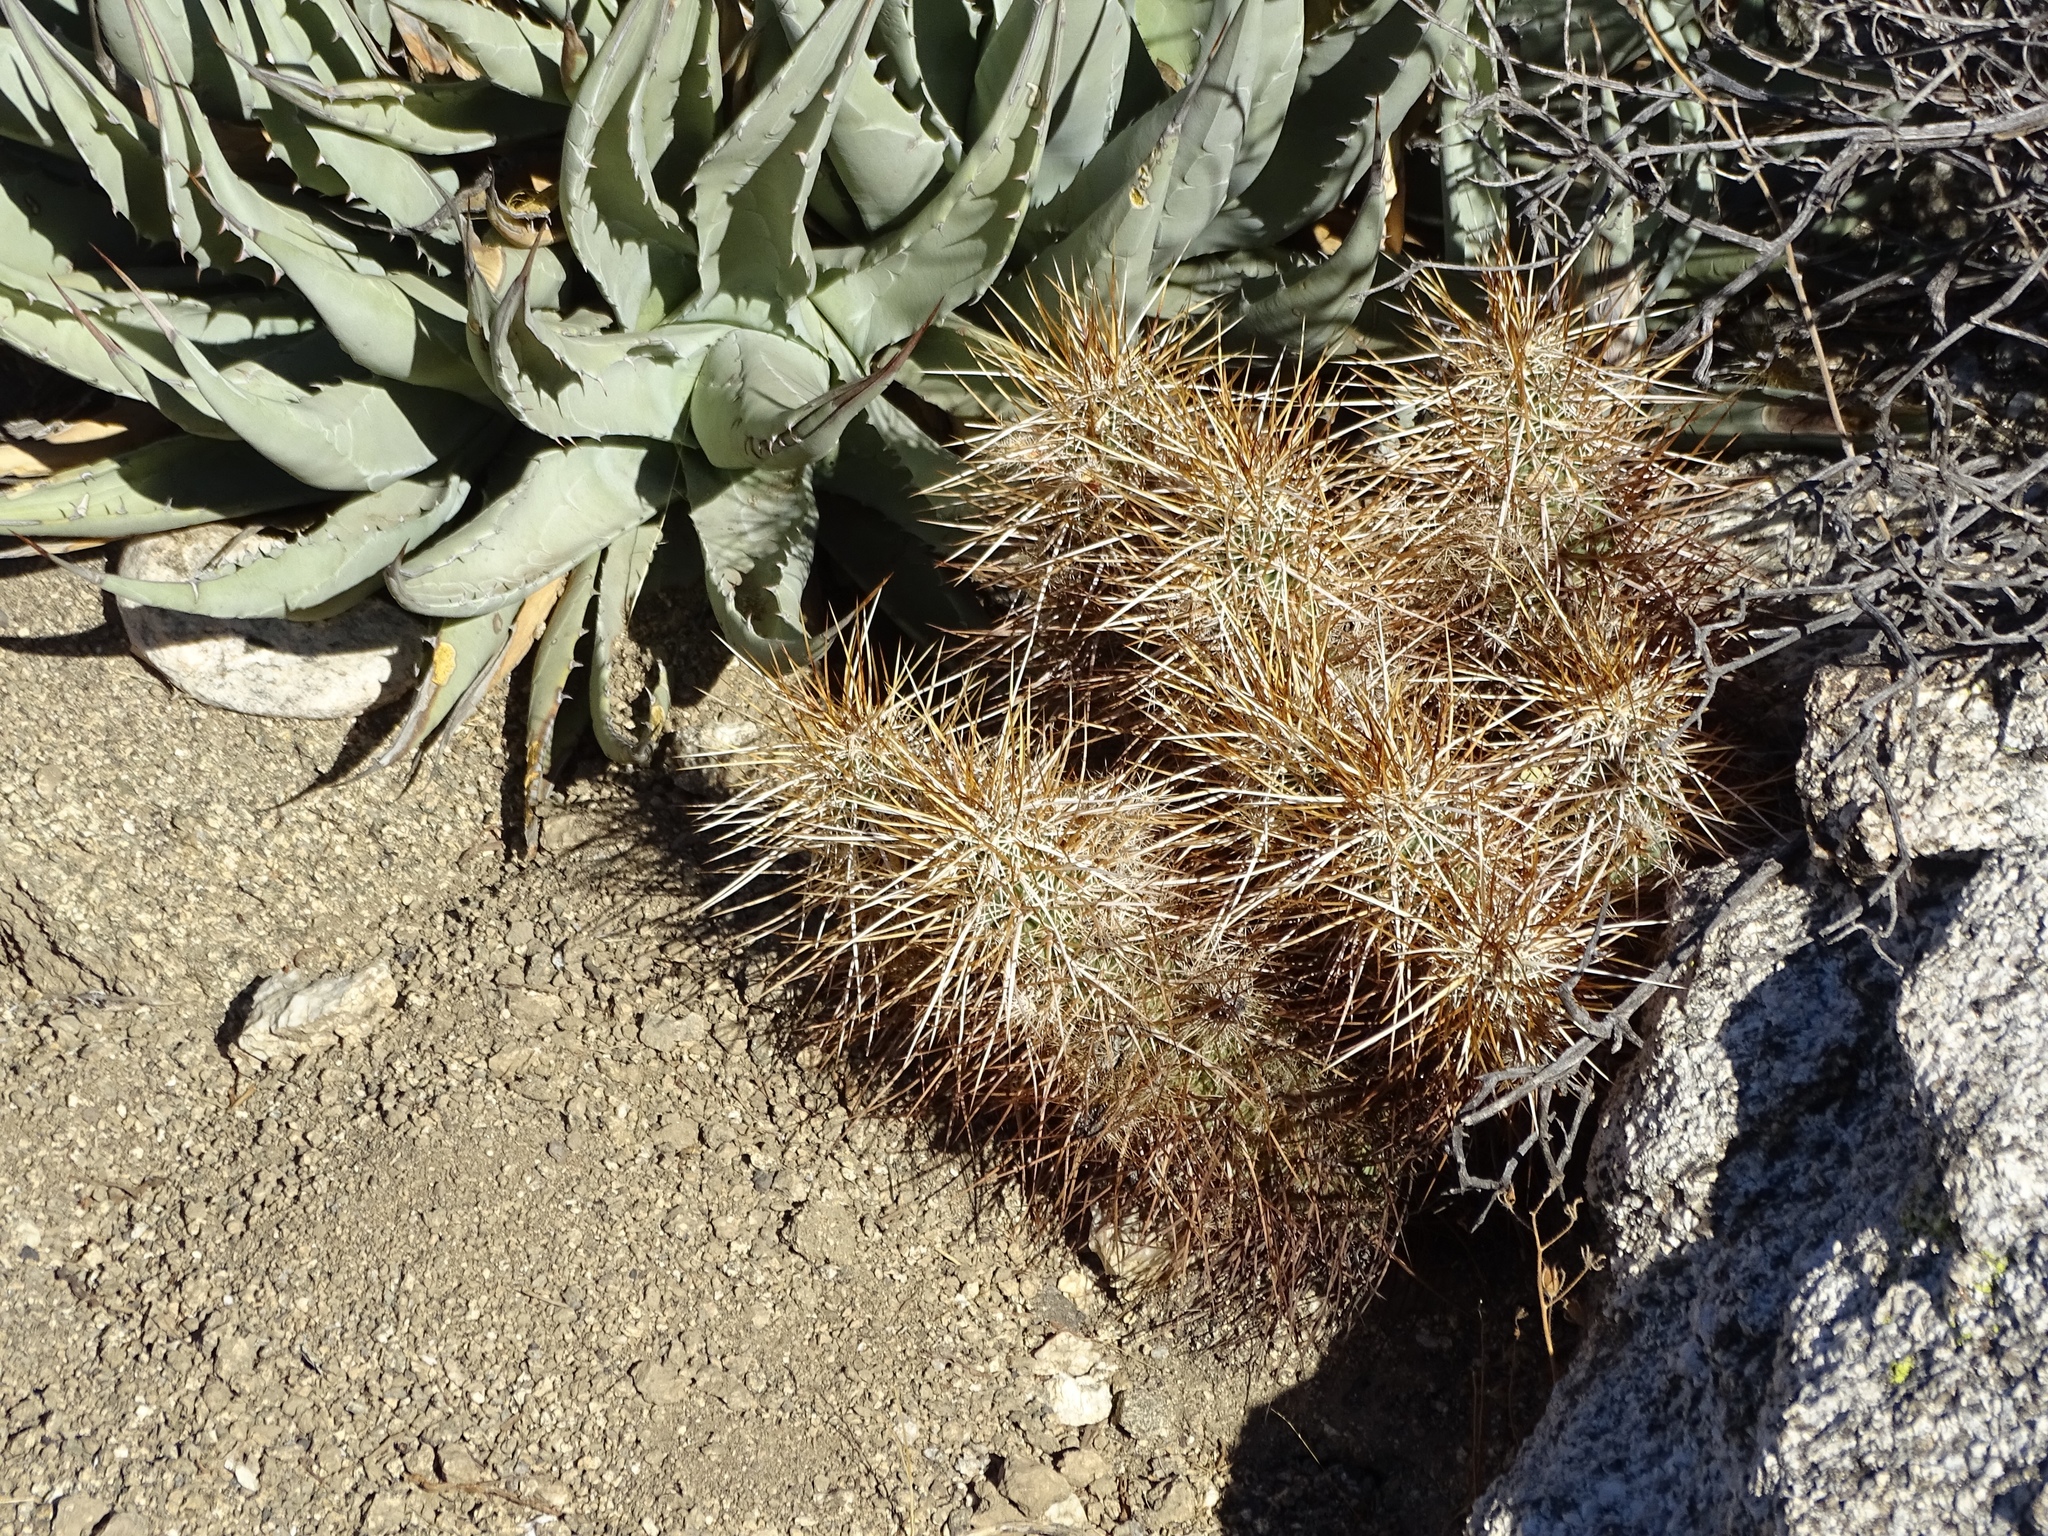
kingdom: Plantae
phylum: Tracheophyta
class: Magnoliopsida
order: Caryophyllales
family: Cactaceae
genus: Echinocereus
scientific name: Echinocereus engelmannii
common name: Engelmann's hedgehog cactus
